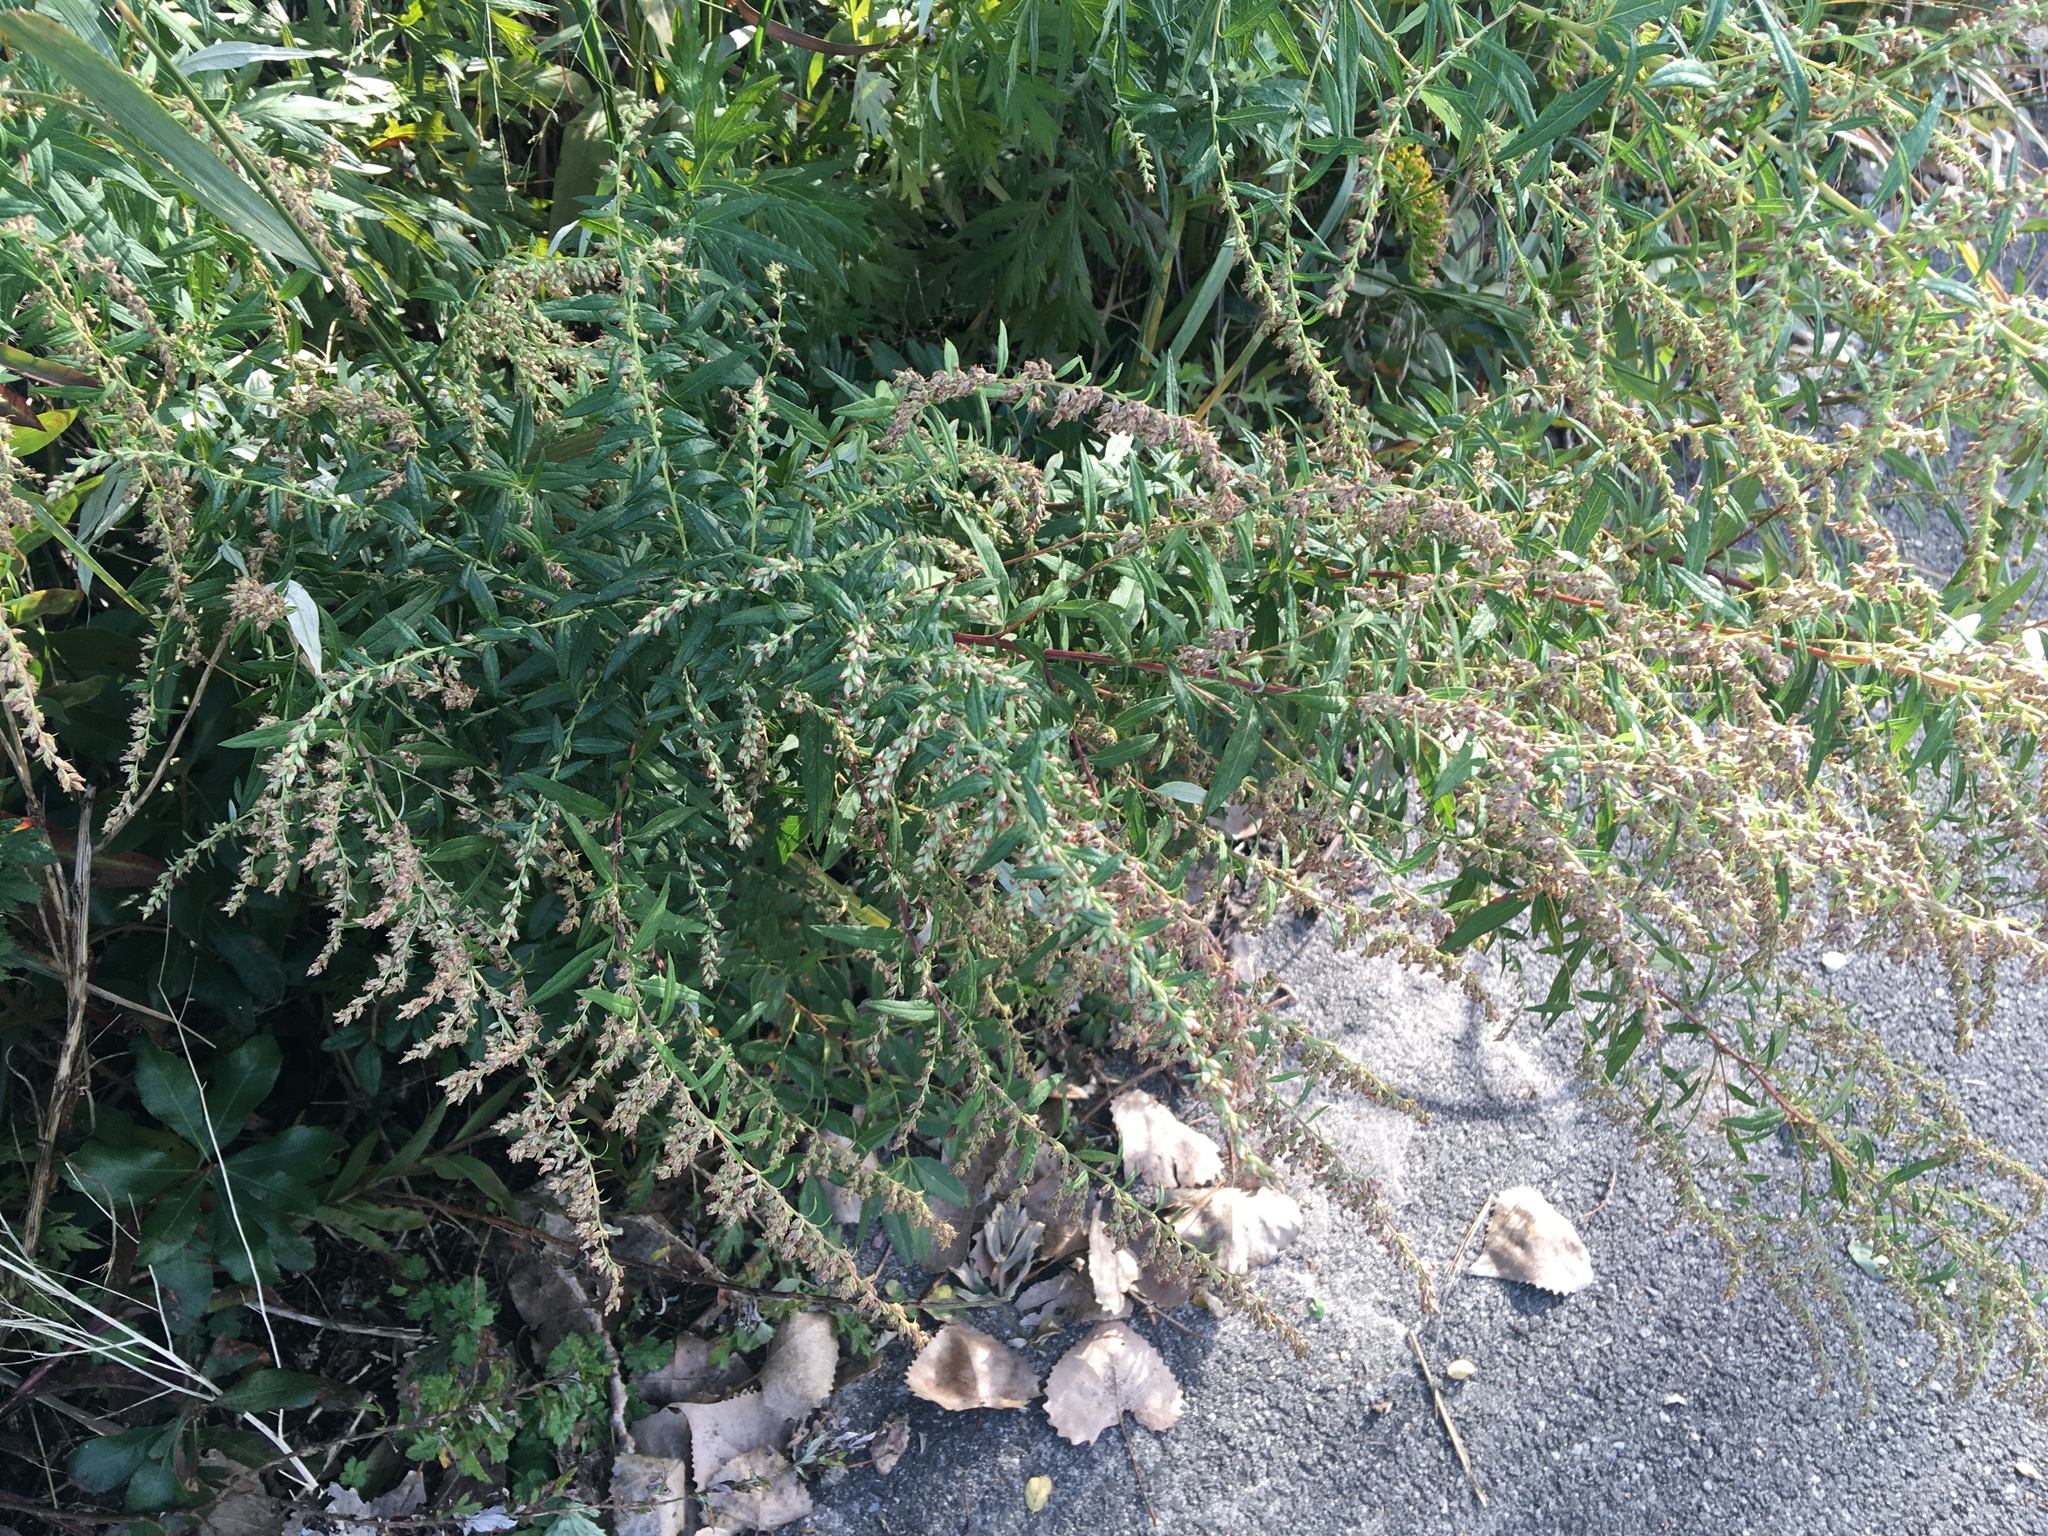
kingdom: Plantae
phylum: Tracheophyta
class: Magnoliopsida
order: Asterales
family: Asteraceae
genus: Artemisia
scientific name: Artemisia vulgaris
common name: Mugwort
